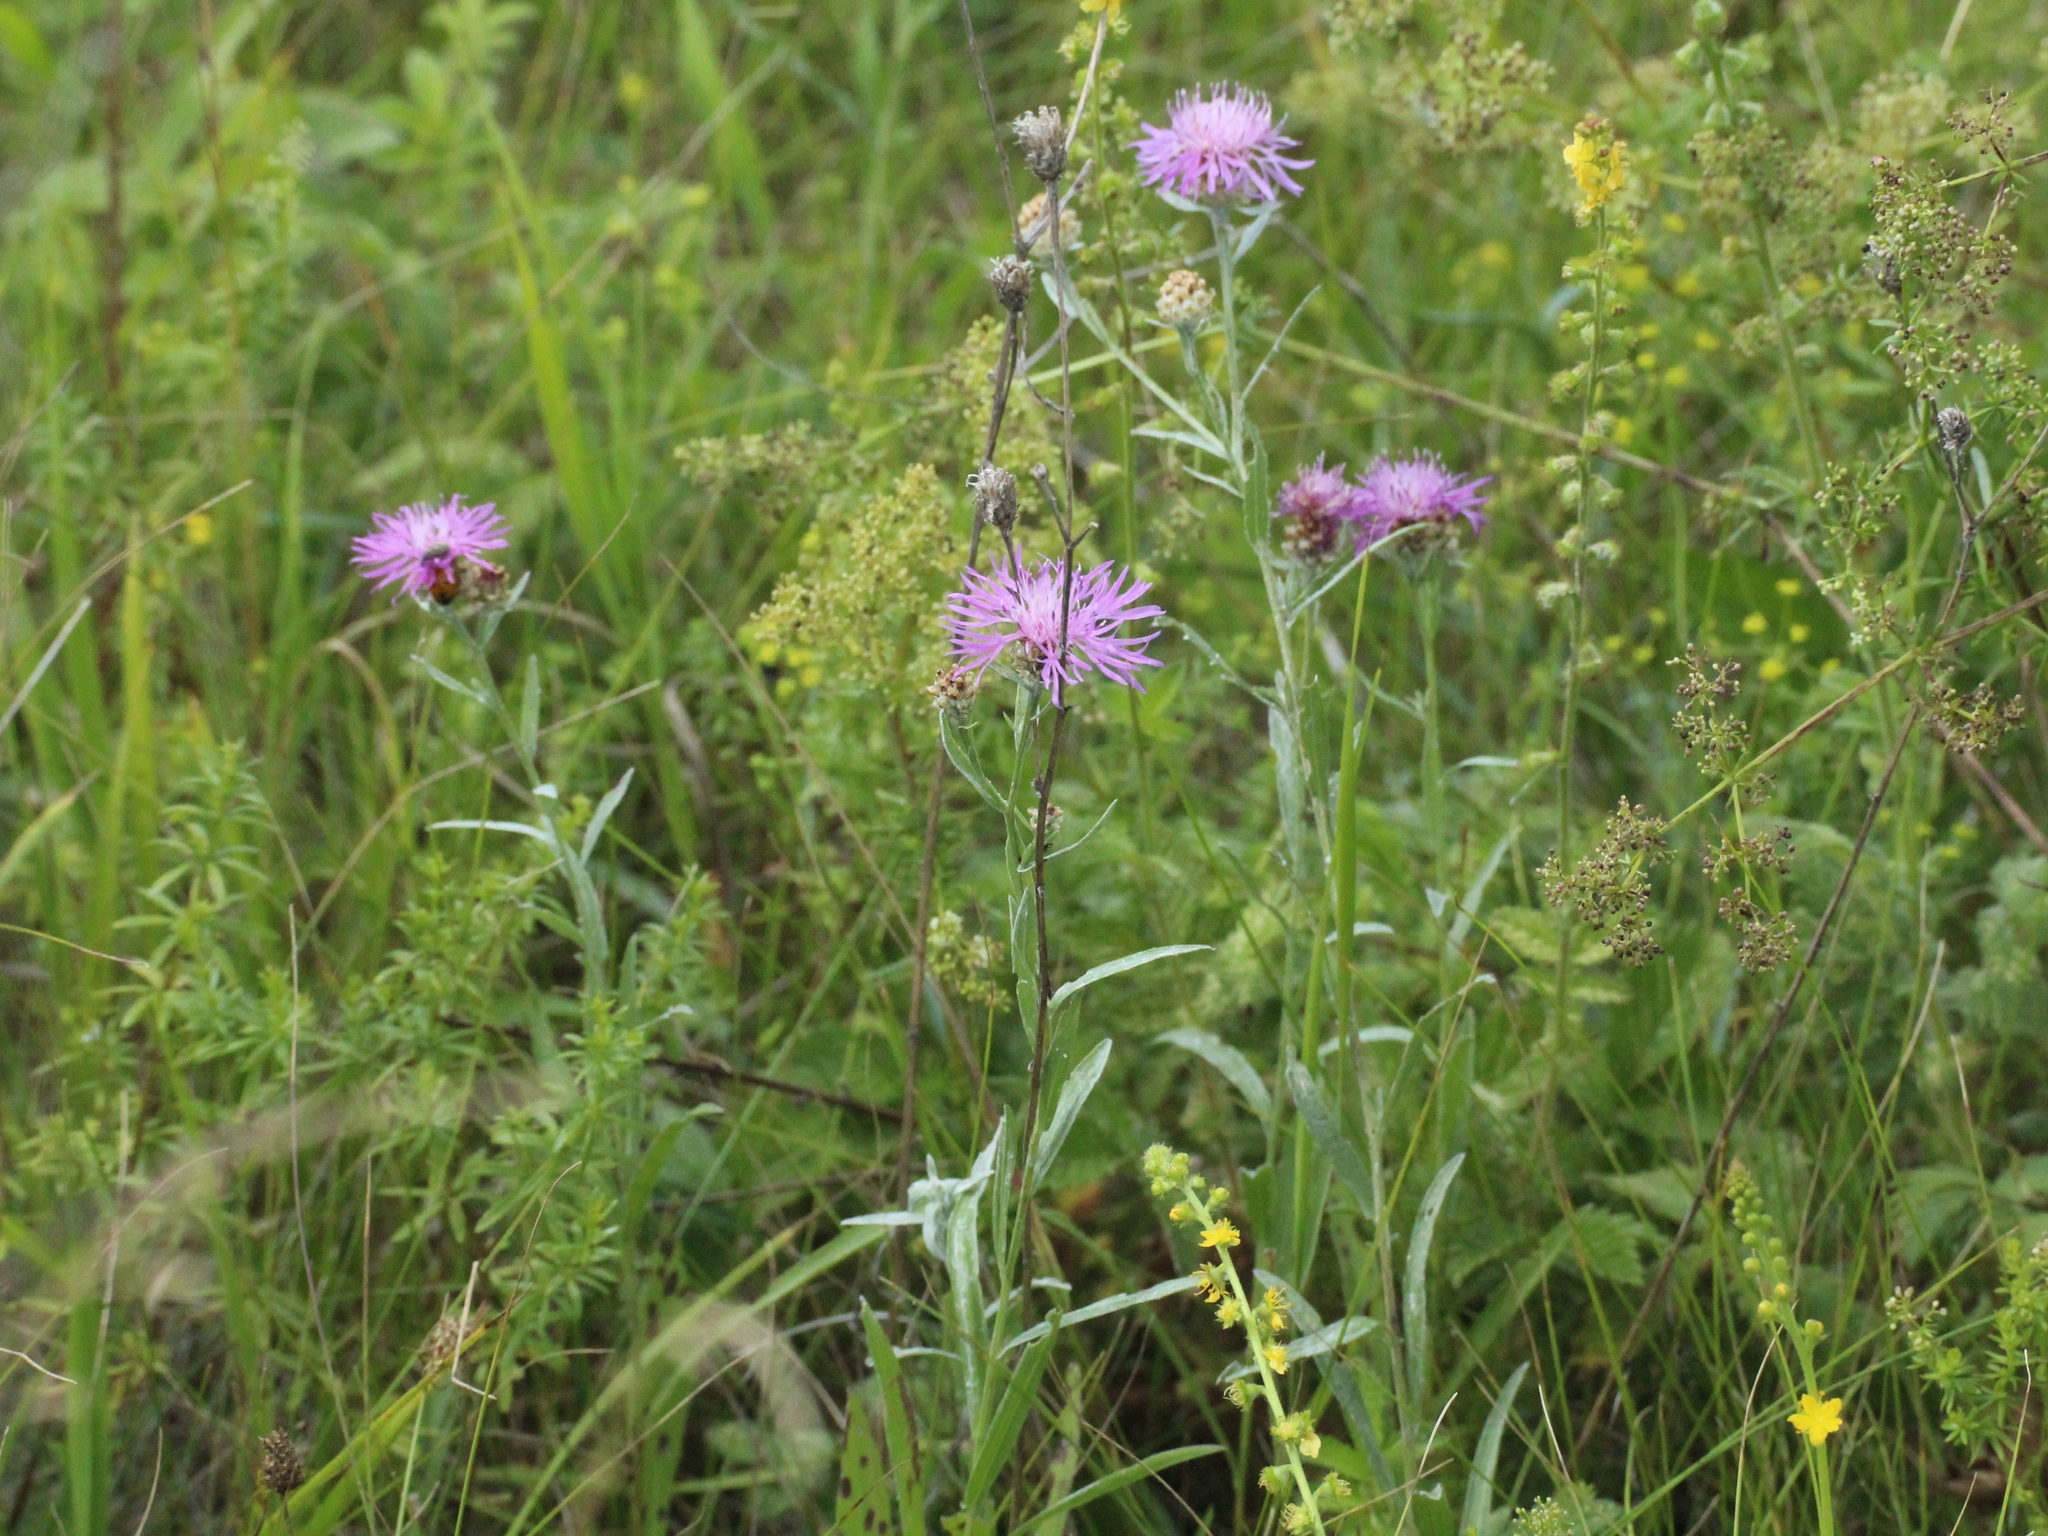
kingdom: Plantae
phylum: Tracheophyta
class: Magnoliopsida
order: Asterales
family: Asteraceae
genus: Centaurea
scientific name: Centaurea jacea
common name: Brown knapweed
